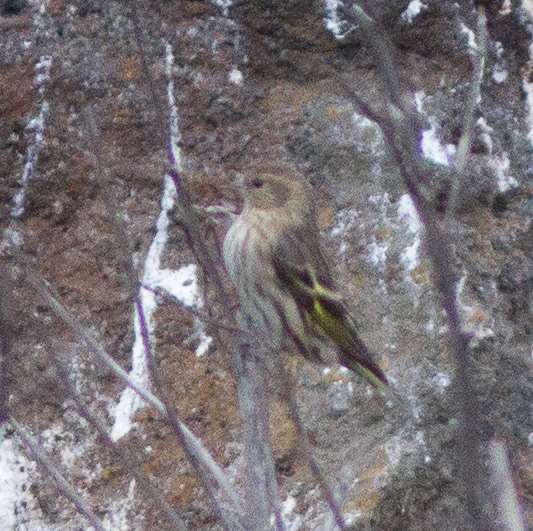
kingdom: Animalia
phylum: Chordata
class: Aves
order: Passeriformes
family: Fringillidae
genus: Spinus
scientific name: Spinus pinus
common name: Pine siskin
